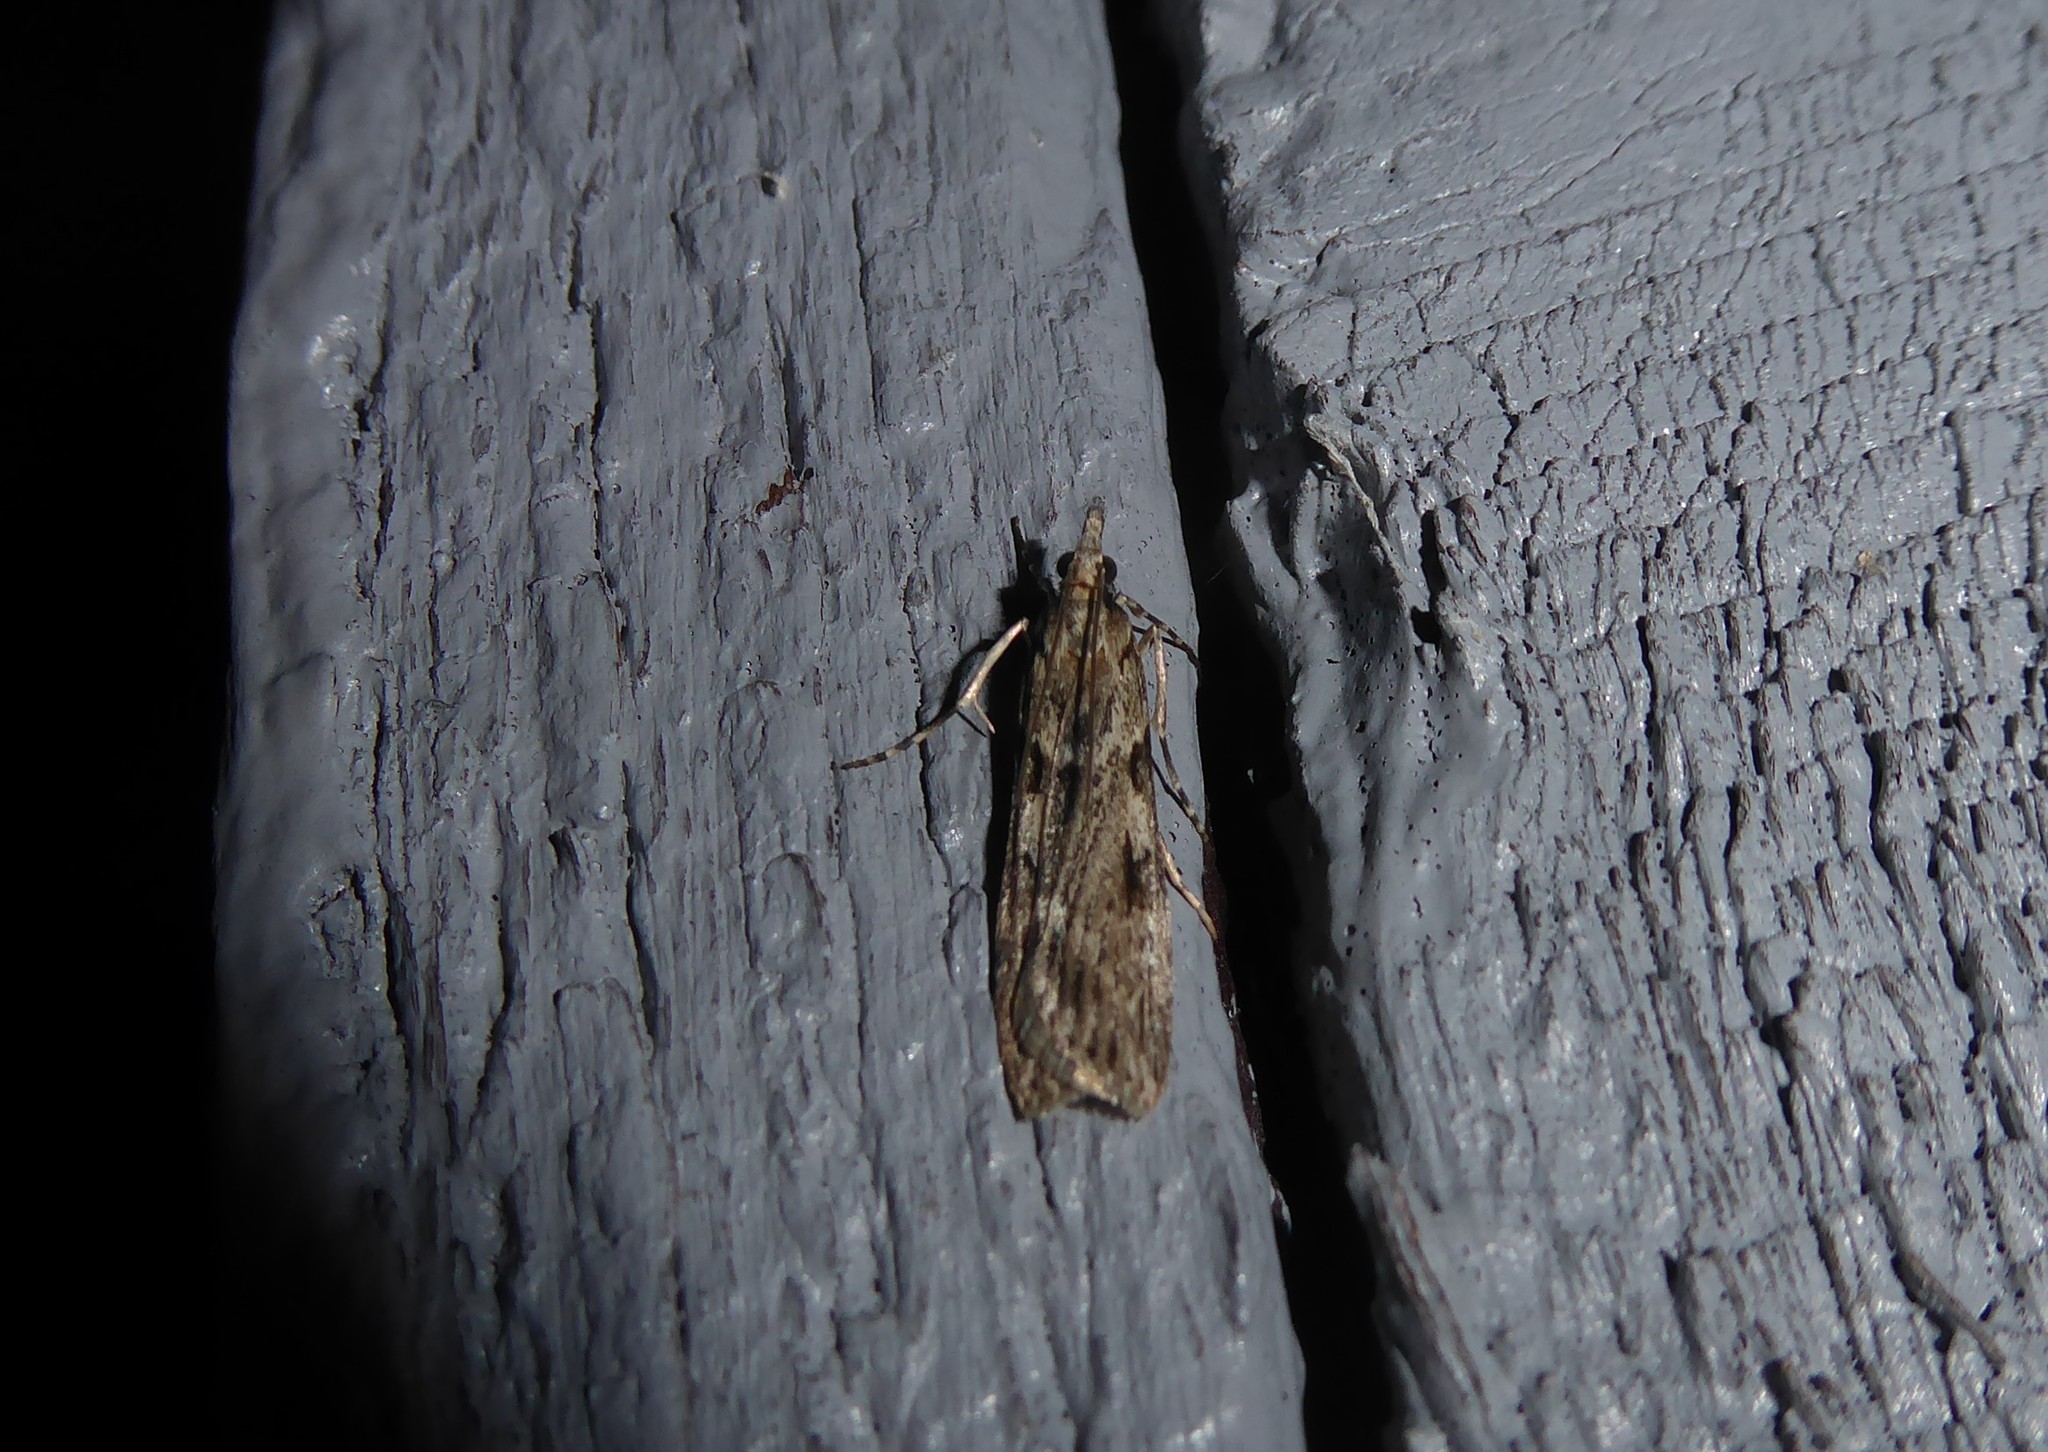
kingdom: Animalia
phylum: Arthropoda
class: Insecta
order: Lepidoptera
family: Crambidae
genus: Scoparia
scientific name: Scoparia halopis
